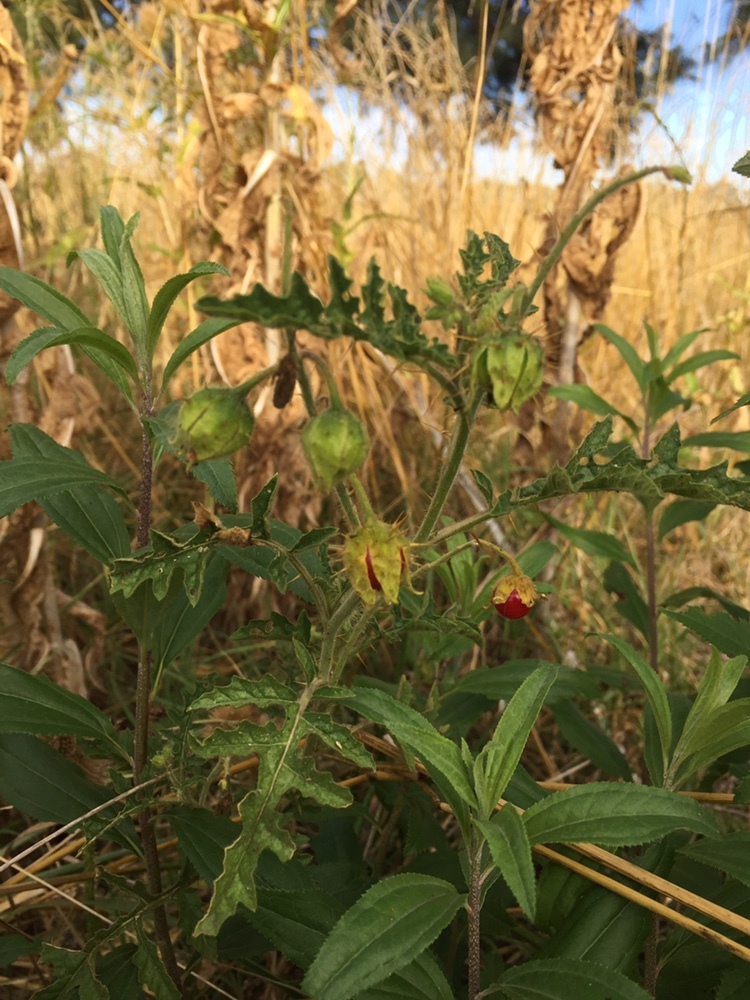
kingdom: Plantae
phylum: Tracheophyta
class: Magnoliopsida
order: Solanales
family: Solanaceae
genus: Solanum
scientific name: Solanum sisymbriifolium
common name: Red buffalo-bur
